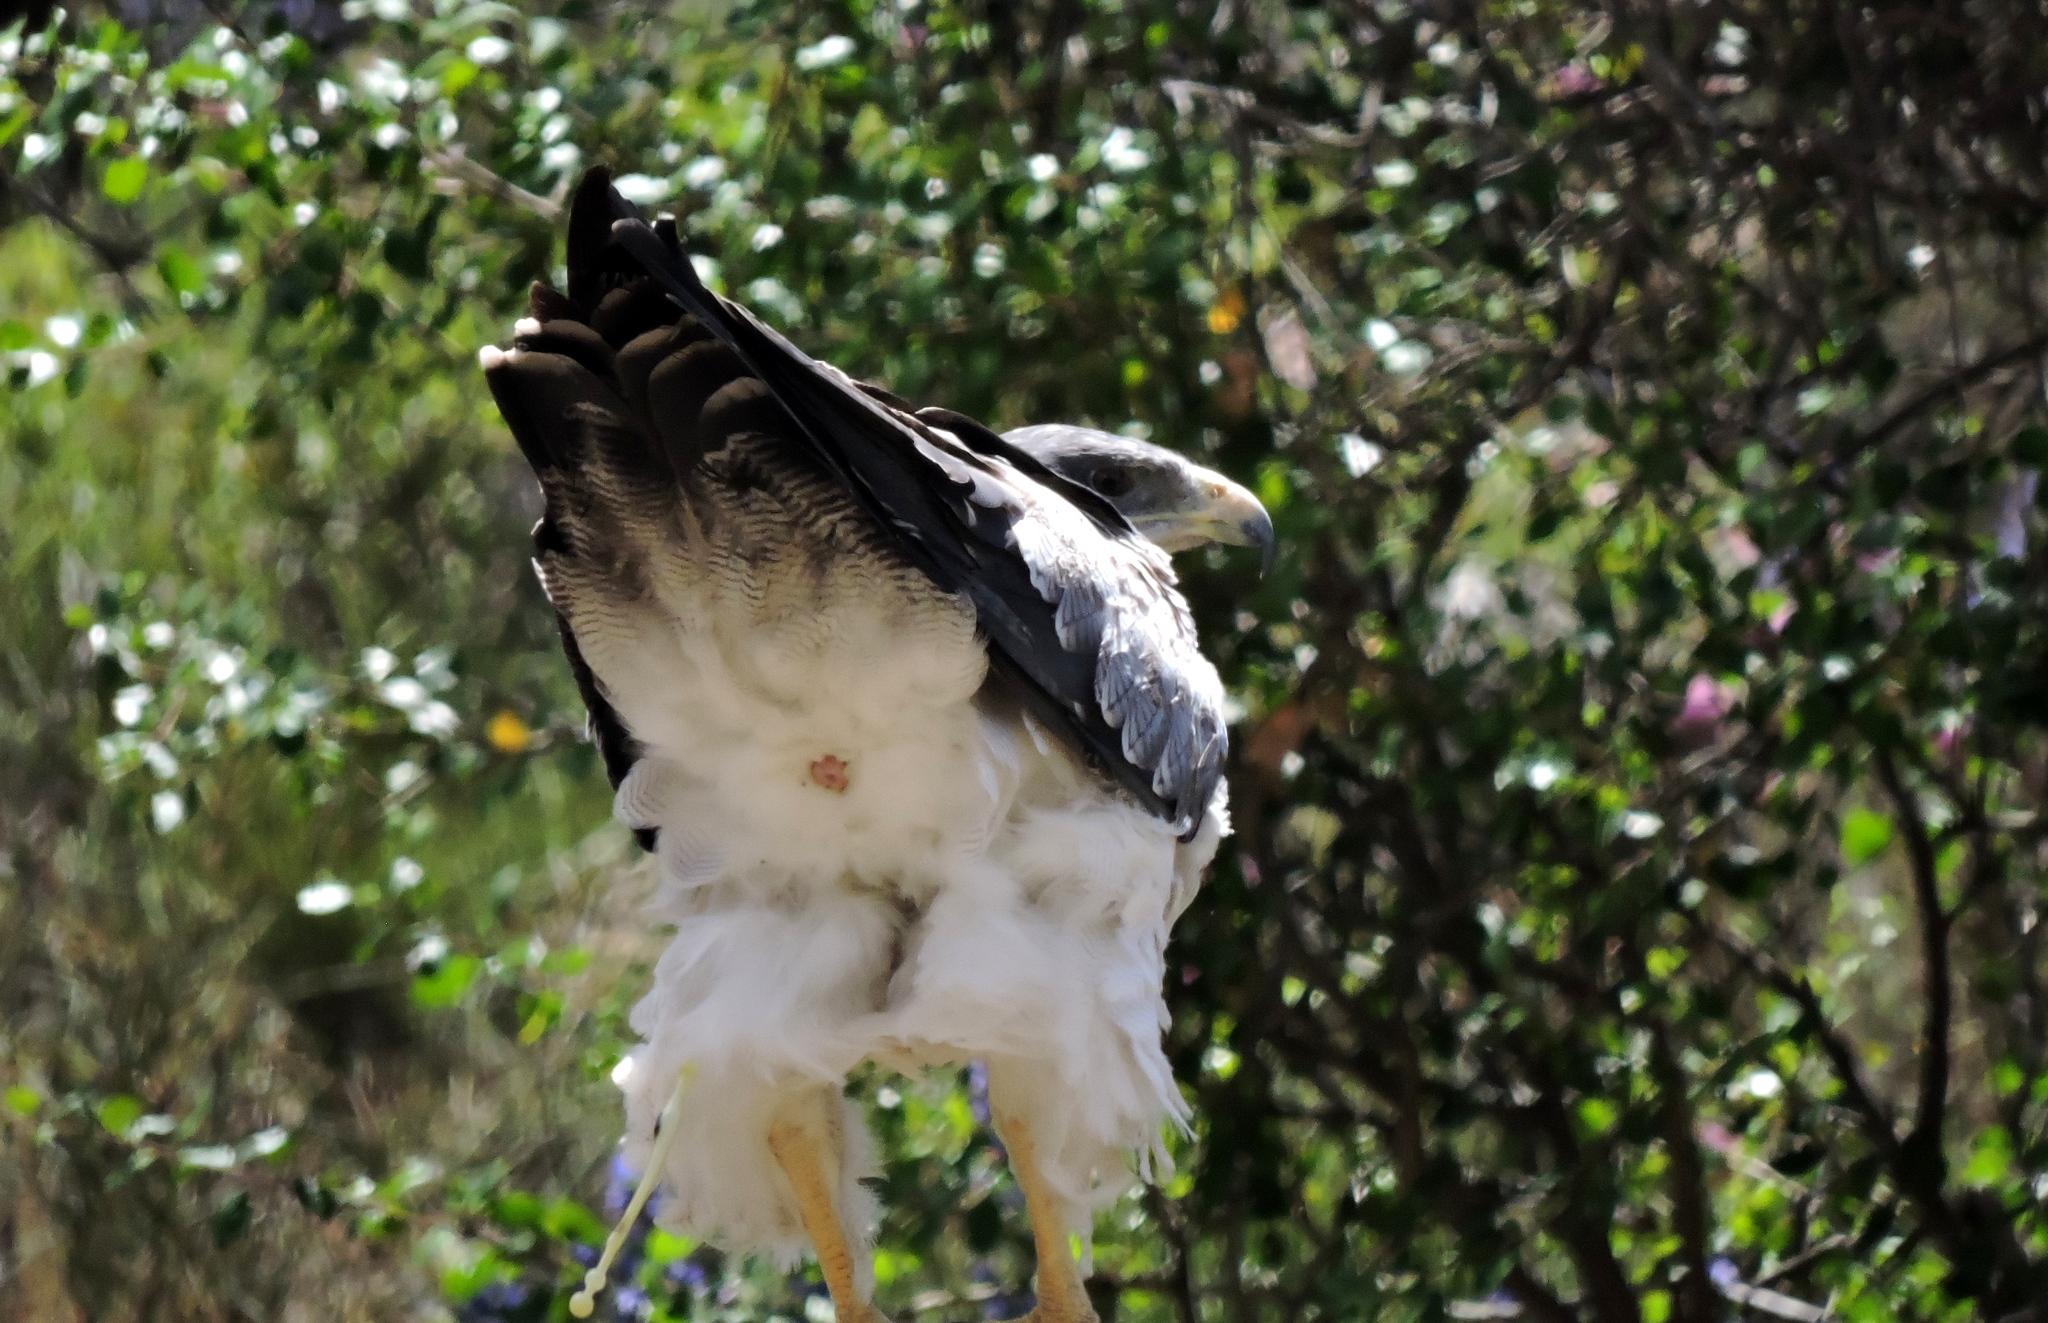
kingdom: Animalia
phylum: Chordata
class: Aves
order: Accipitriformes
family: Accipitridae
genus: Geranoaetus
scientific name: Geranoaetus melanoleucus
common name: Black-chested buzzard-eagle
